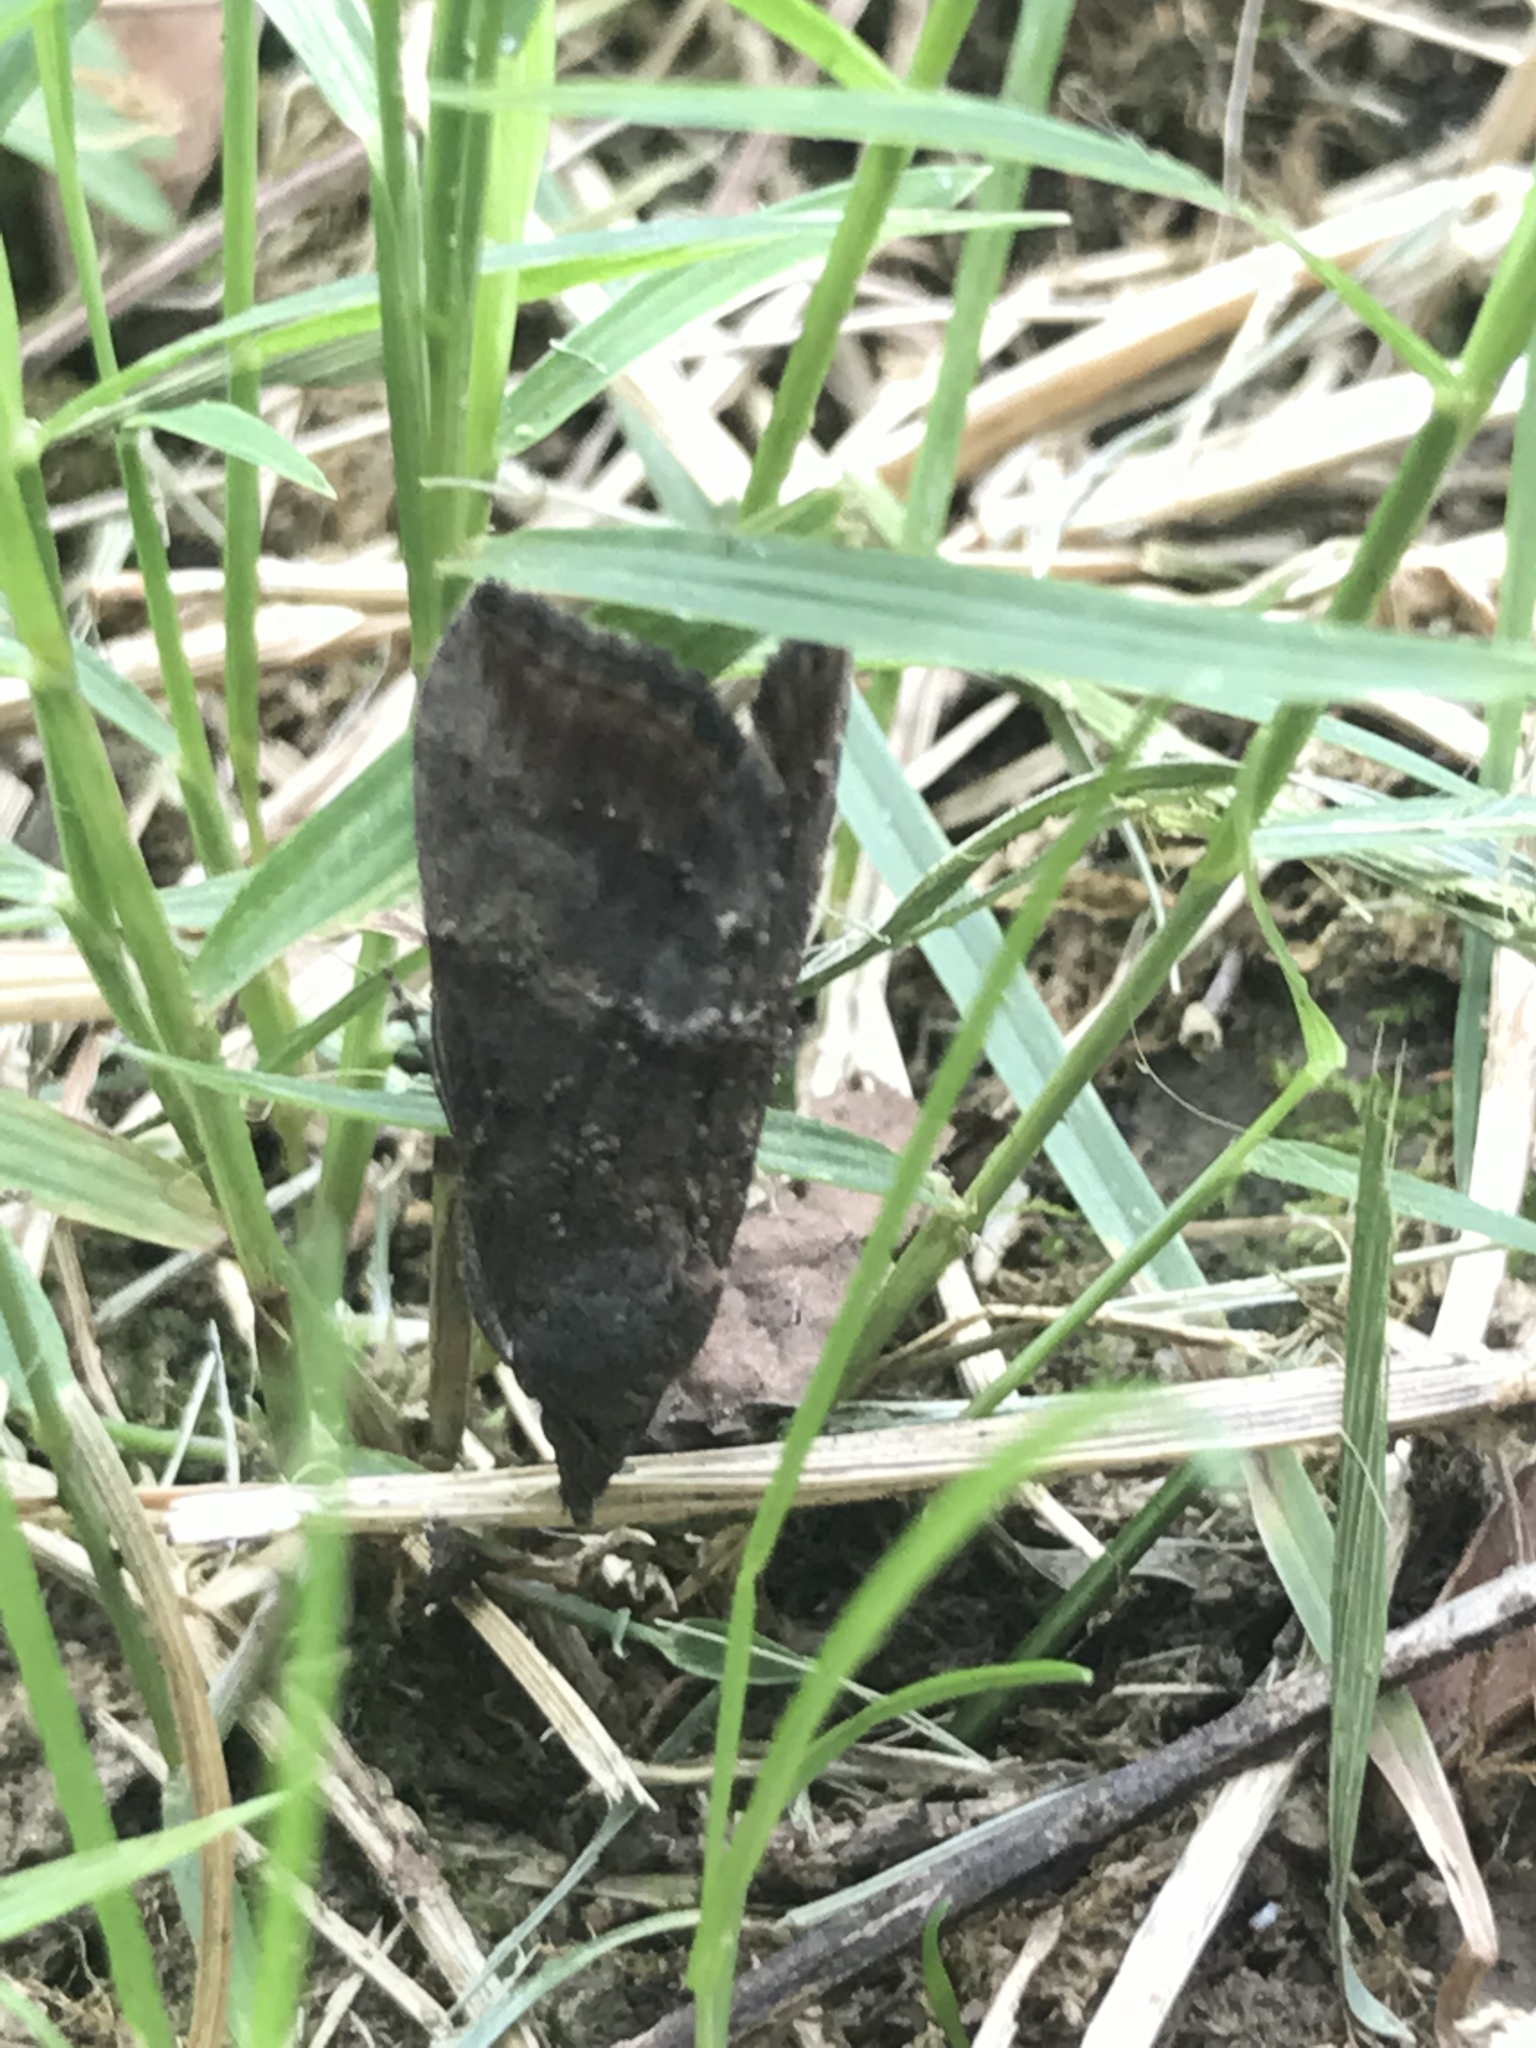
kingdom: Animalia
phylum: Arthropoda
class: Insecta
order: Lepidoptera
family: Erebidae
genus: Hypena
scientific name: Hypena scabra
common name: Green cloverworm
